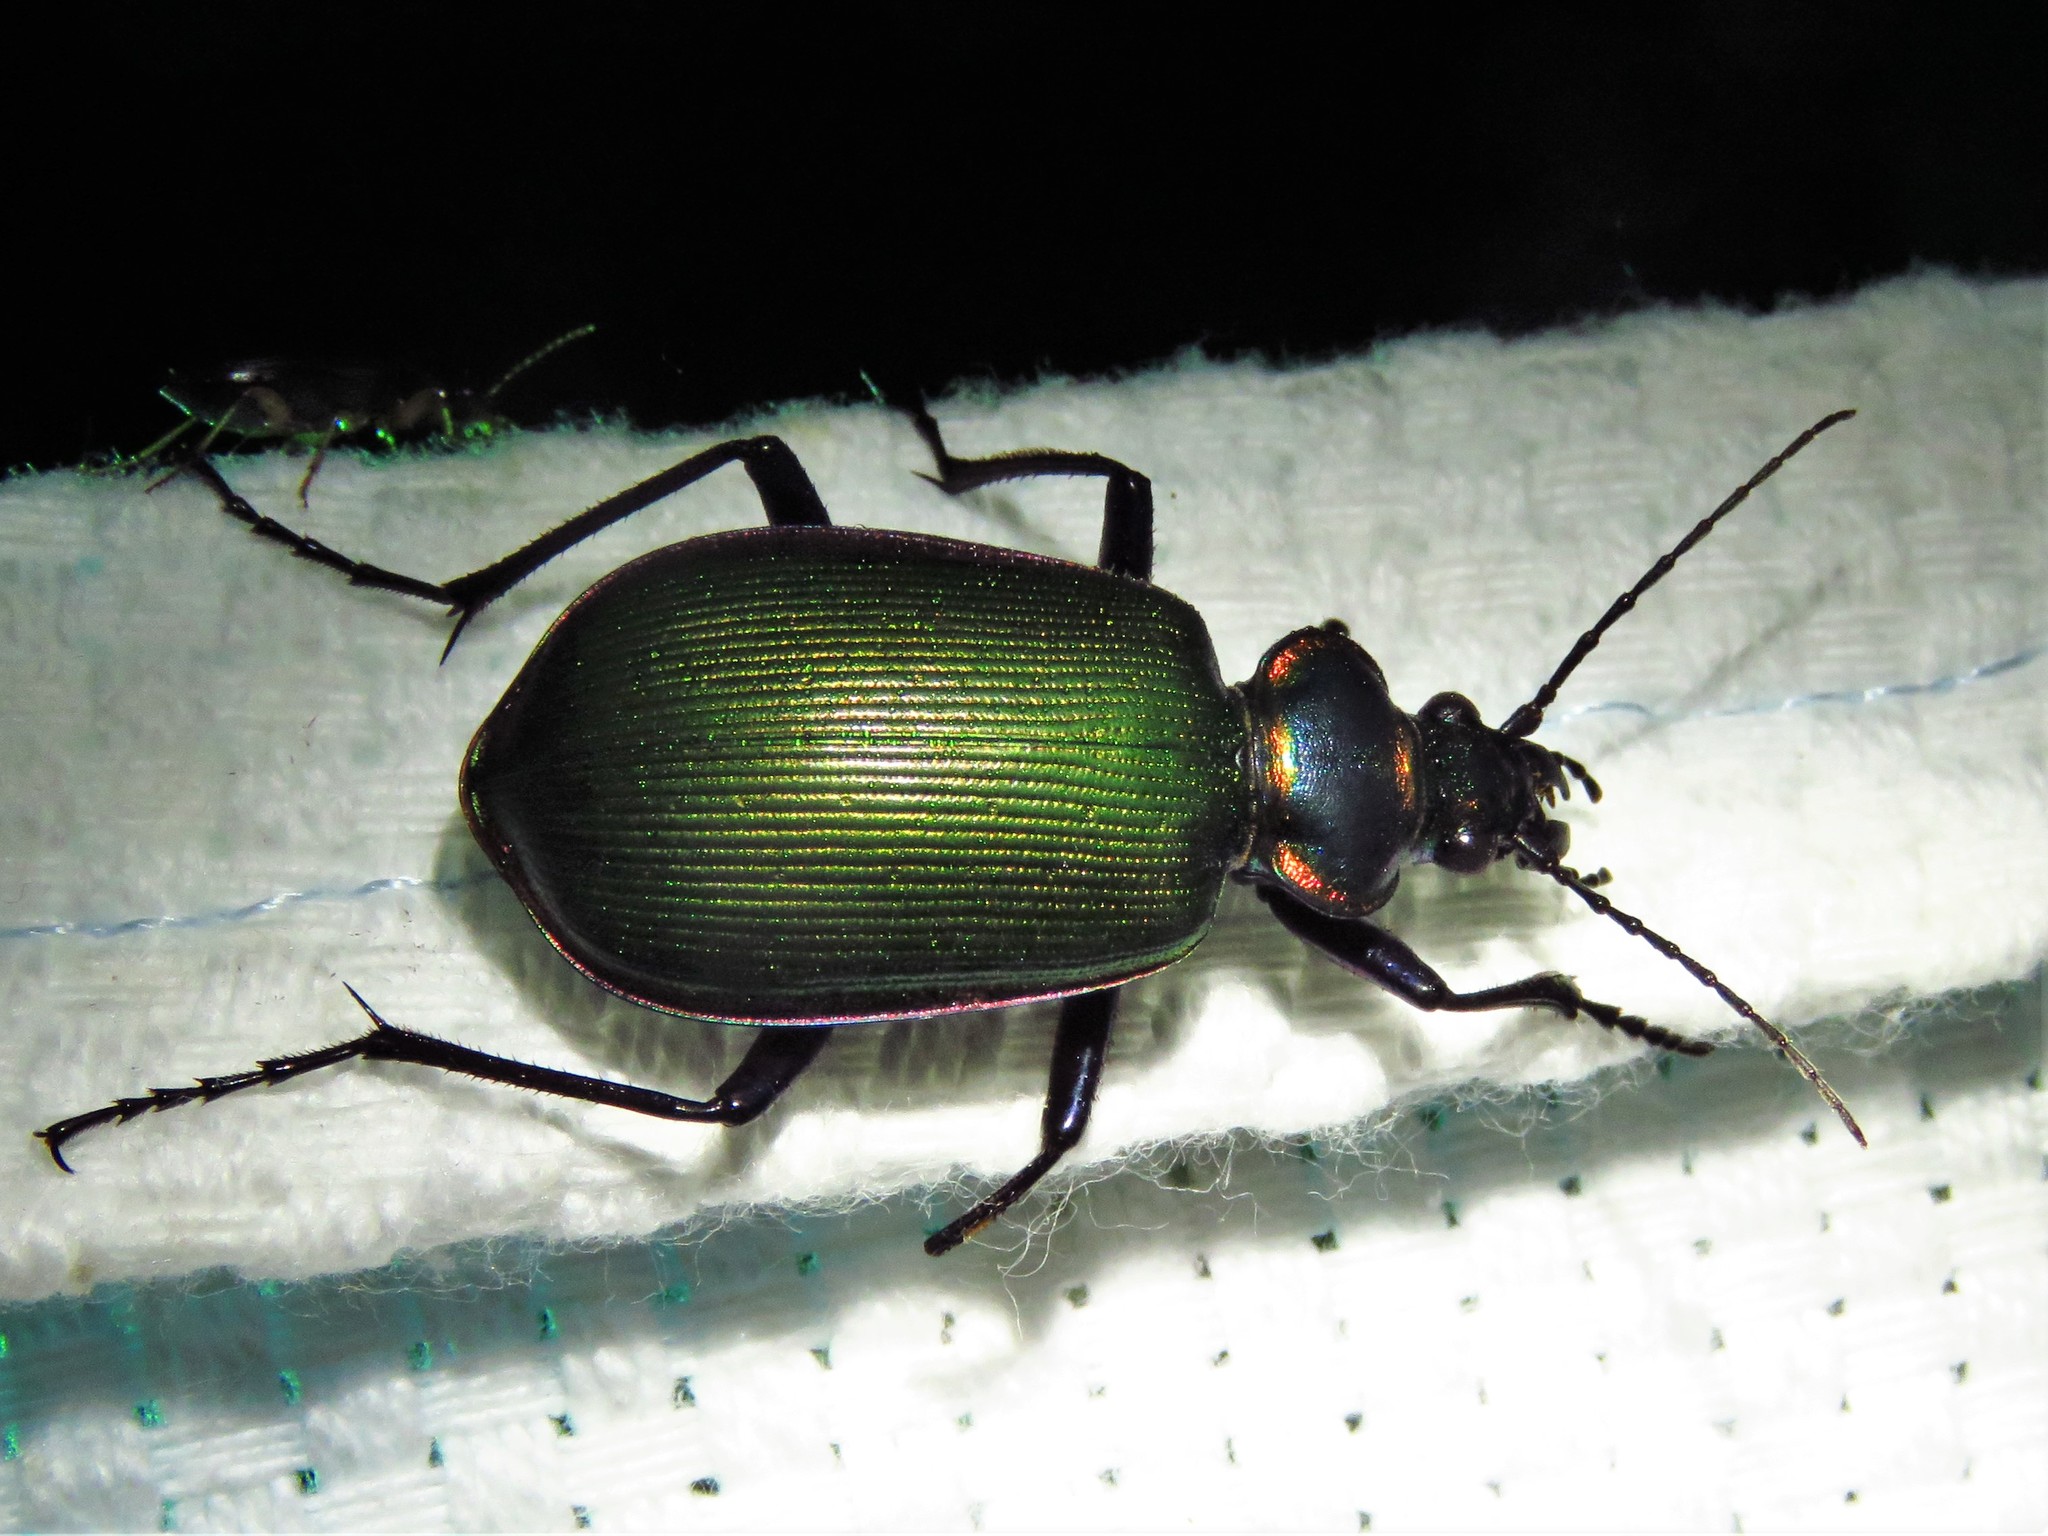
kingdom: Animalia
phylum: Arthropoda
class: Insecta
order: Coleoptera
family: Carabidae
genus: Calosoma
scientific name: Calosoma scrutator
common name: Fiery searcher beetle
